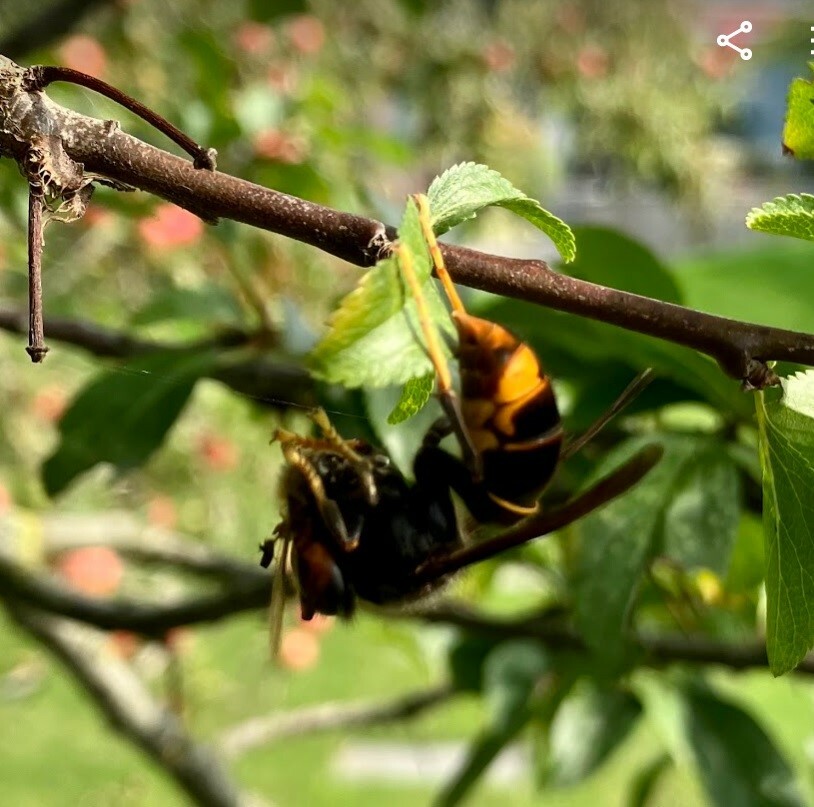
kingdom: Animalia
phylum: Arthropoda
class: Insecta
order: Hymenoptera
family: Vespidae
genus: Vespa
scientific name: Vespa velutina
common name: Asian hornet
